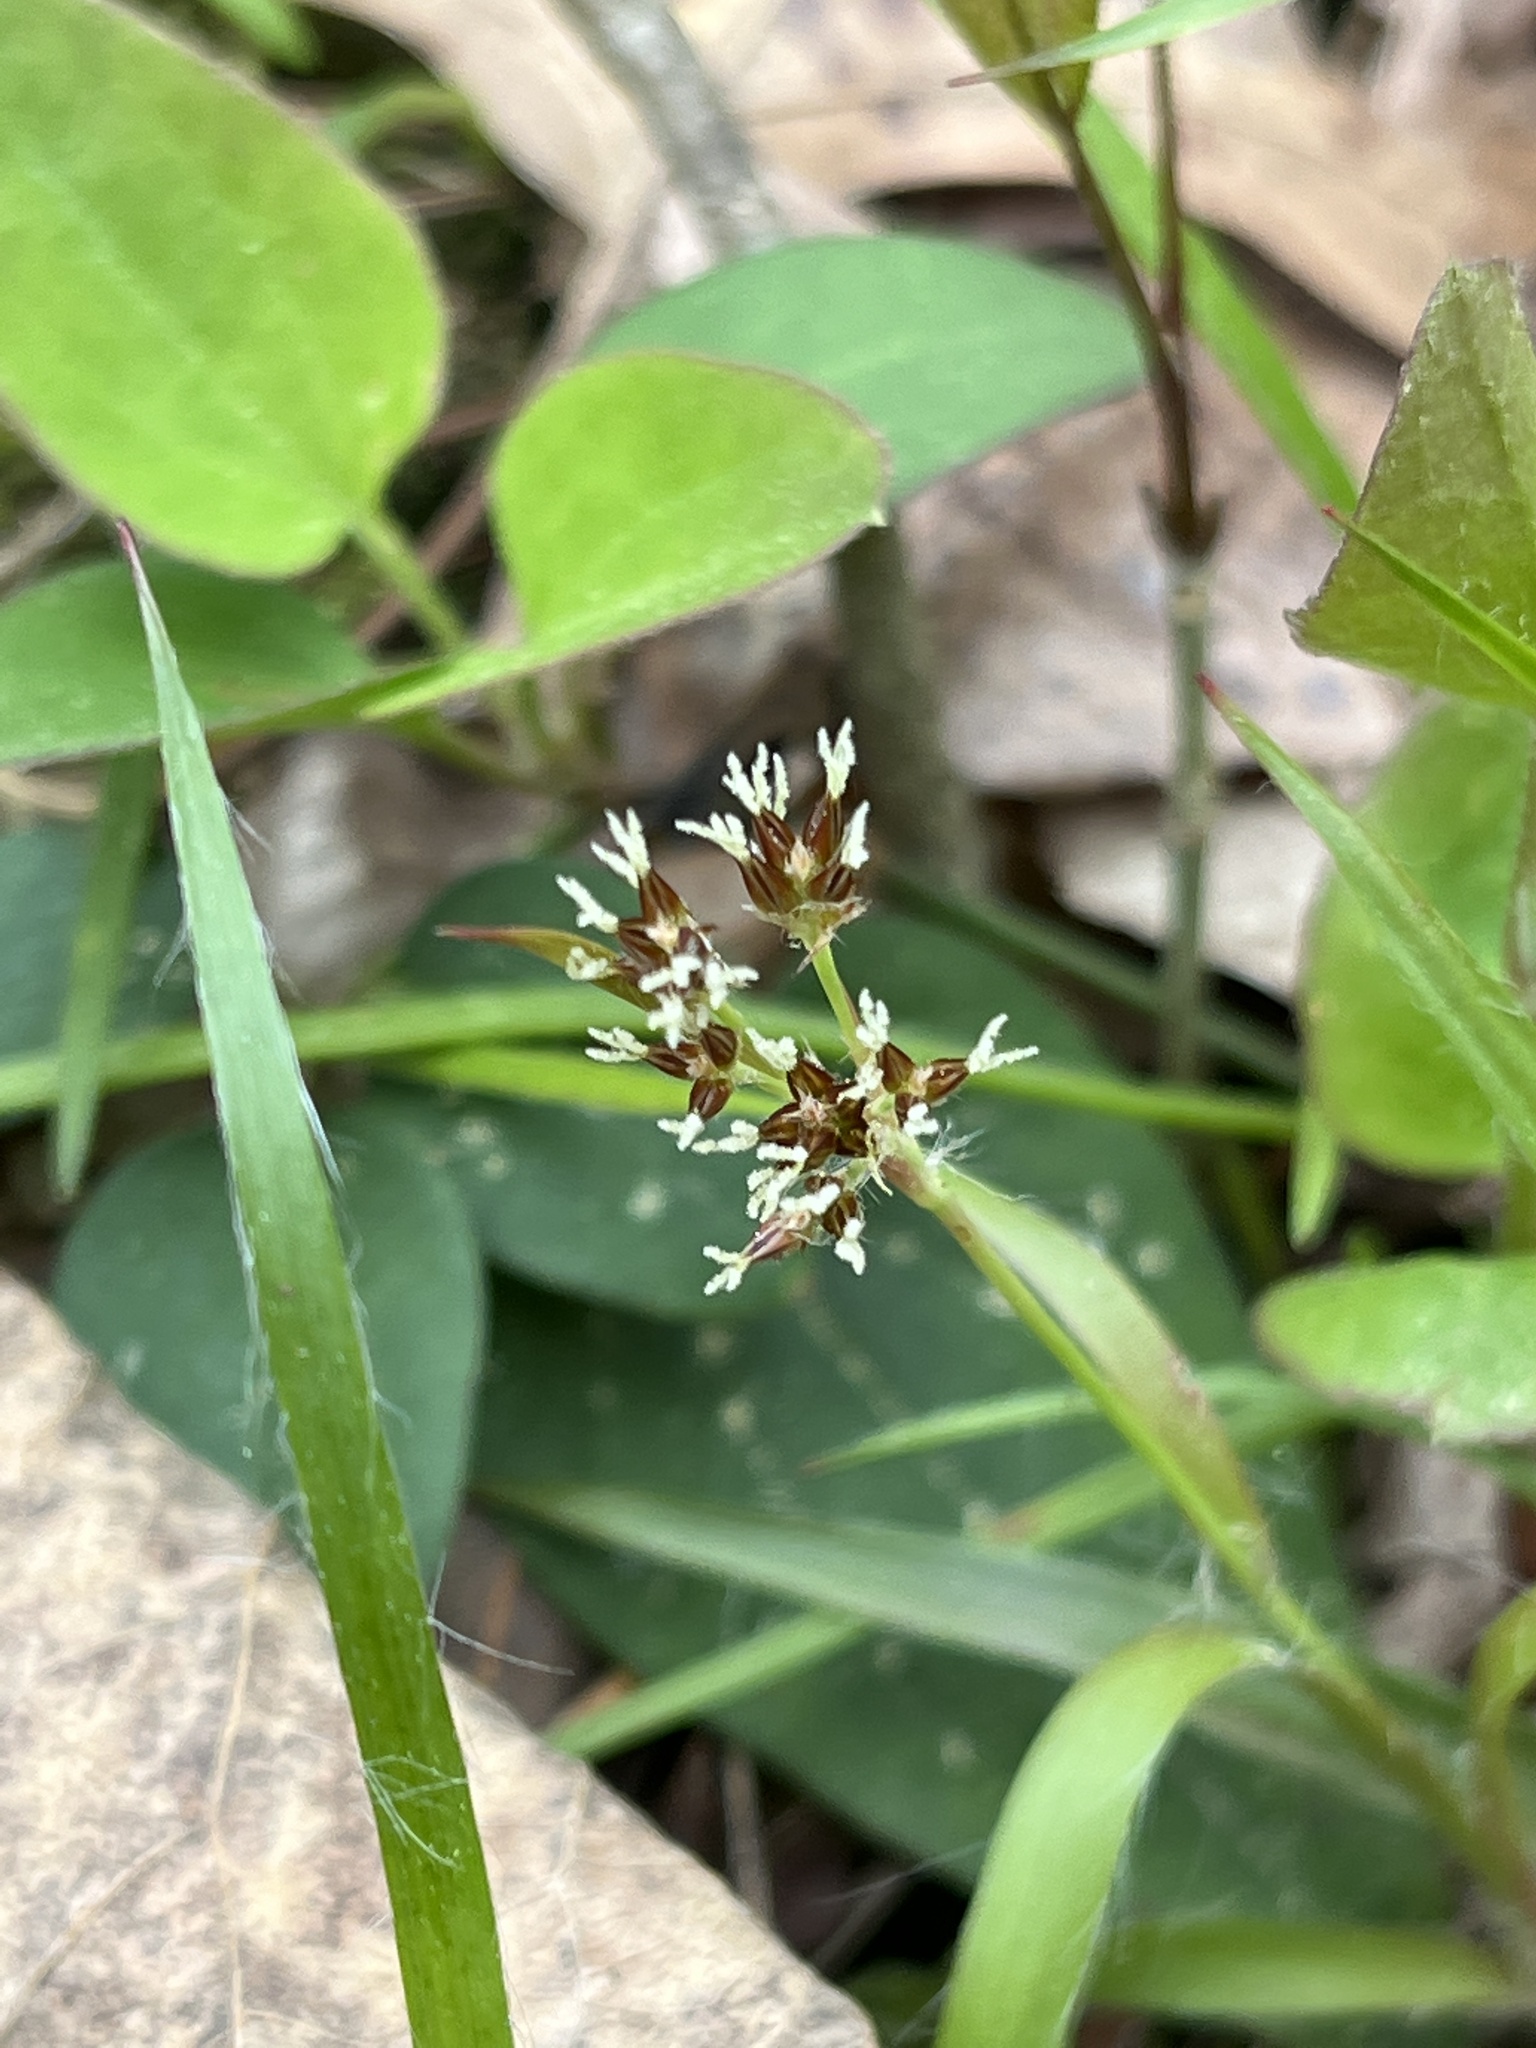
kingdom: Plantae
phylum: Tracheophyta
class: Liliopsida
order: Poales
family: Juncaceae
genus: Luzula
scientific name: Luzula echinata
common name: Hedgehog woodrush
